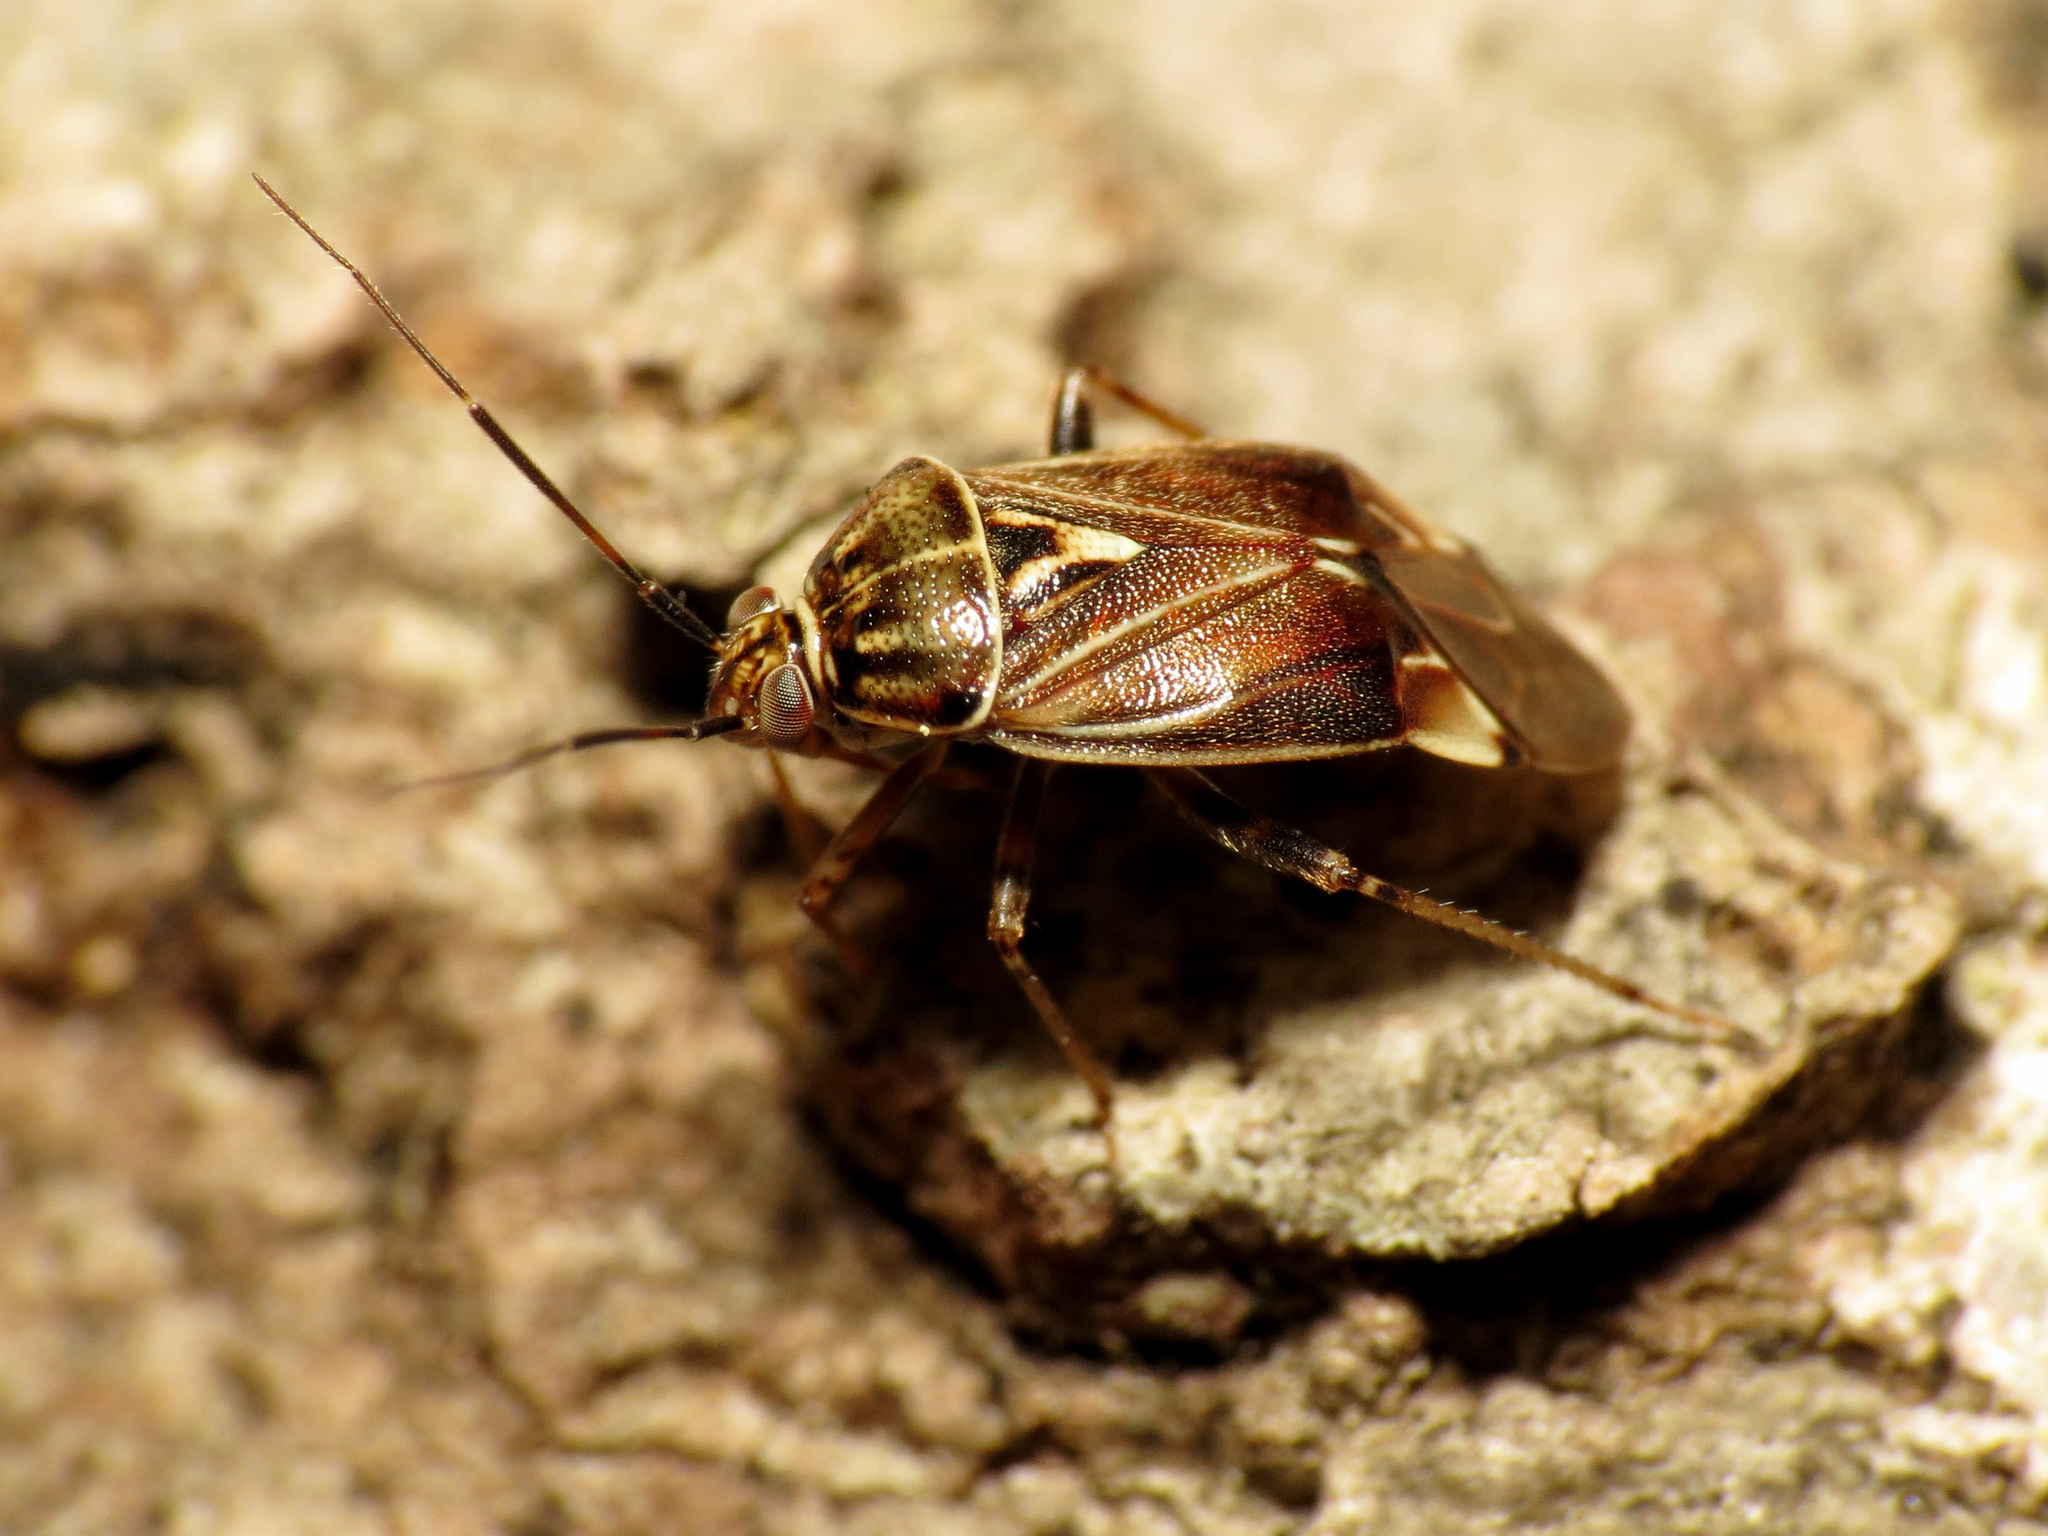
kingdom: Animalia
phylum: Arthropoda
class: Insecta
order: Hemiptera
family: Miridae
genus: Lygus
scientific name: Lygus lineolaris
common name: North american tarnished plant bug
